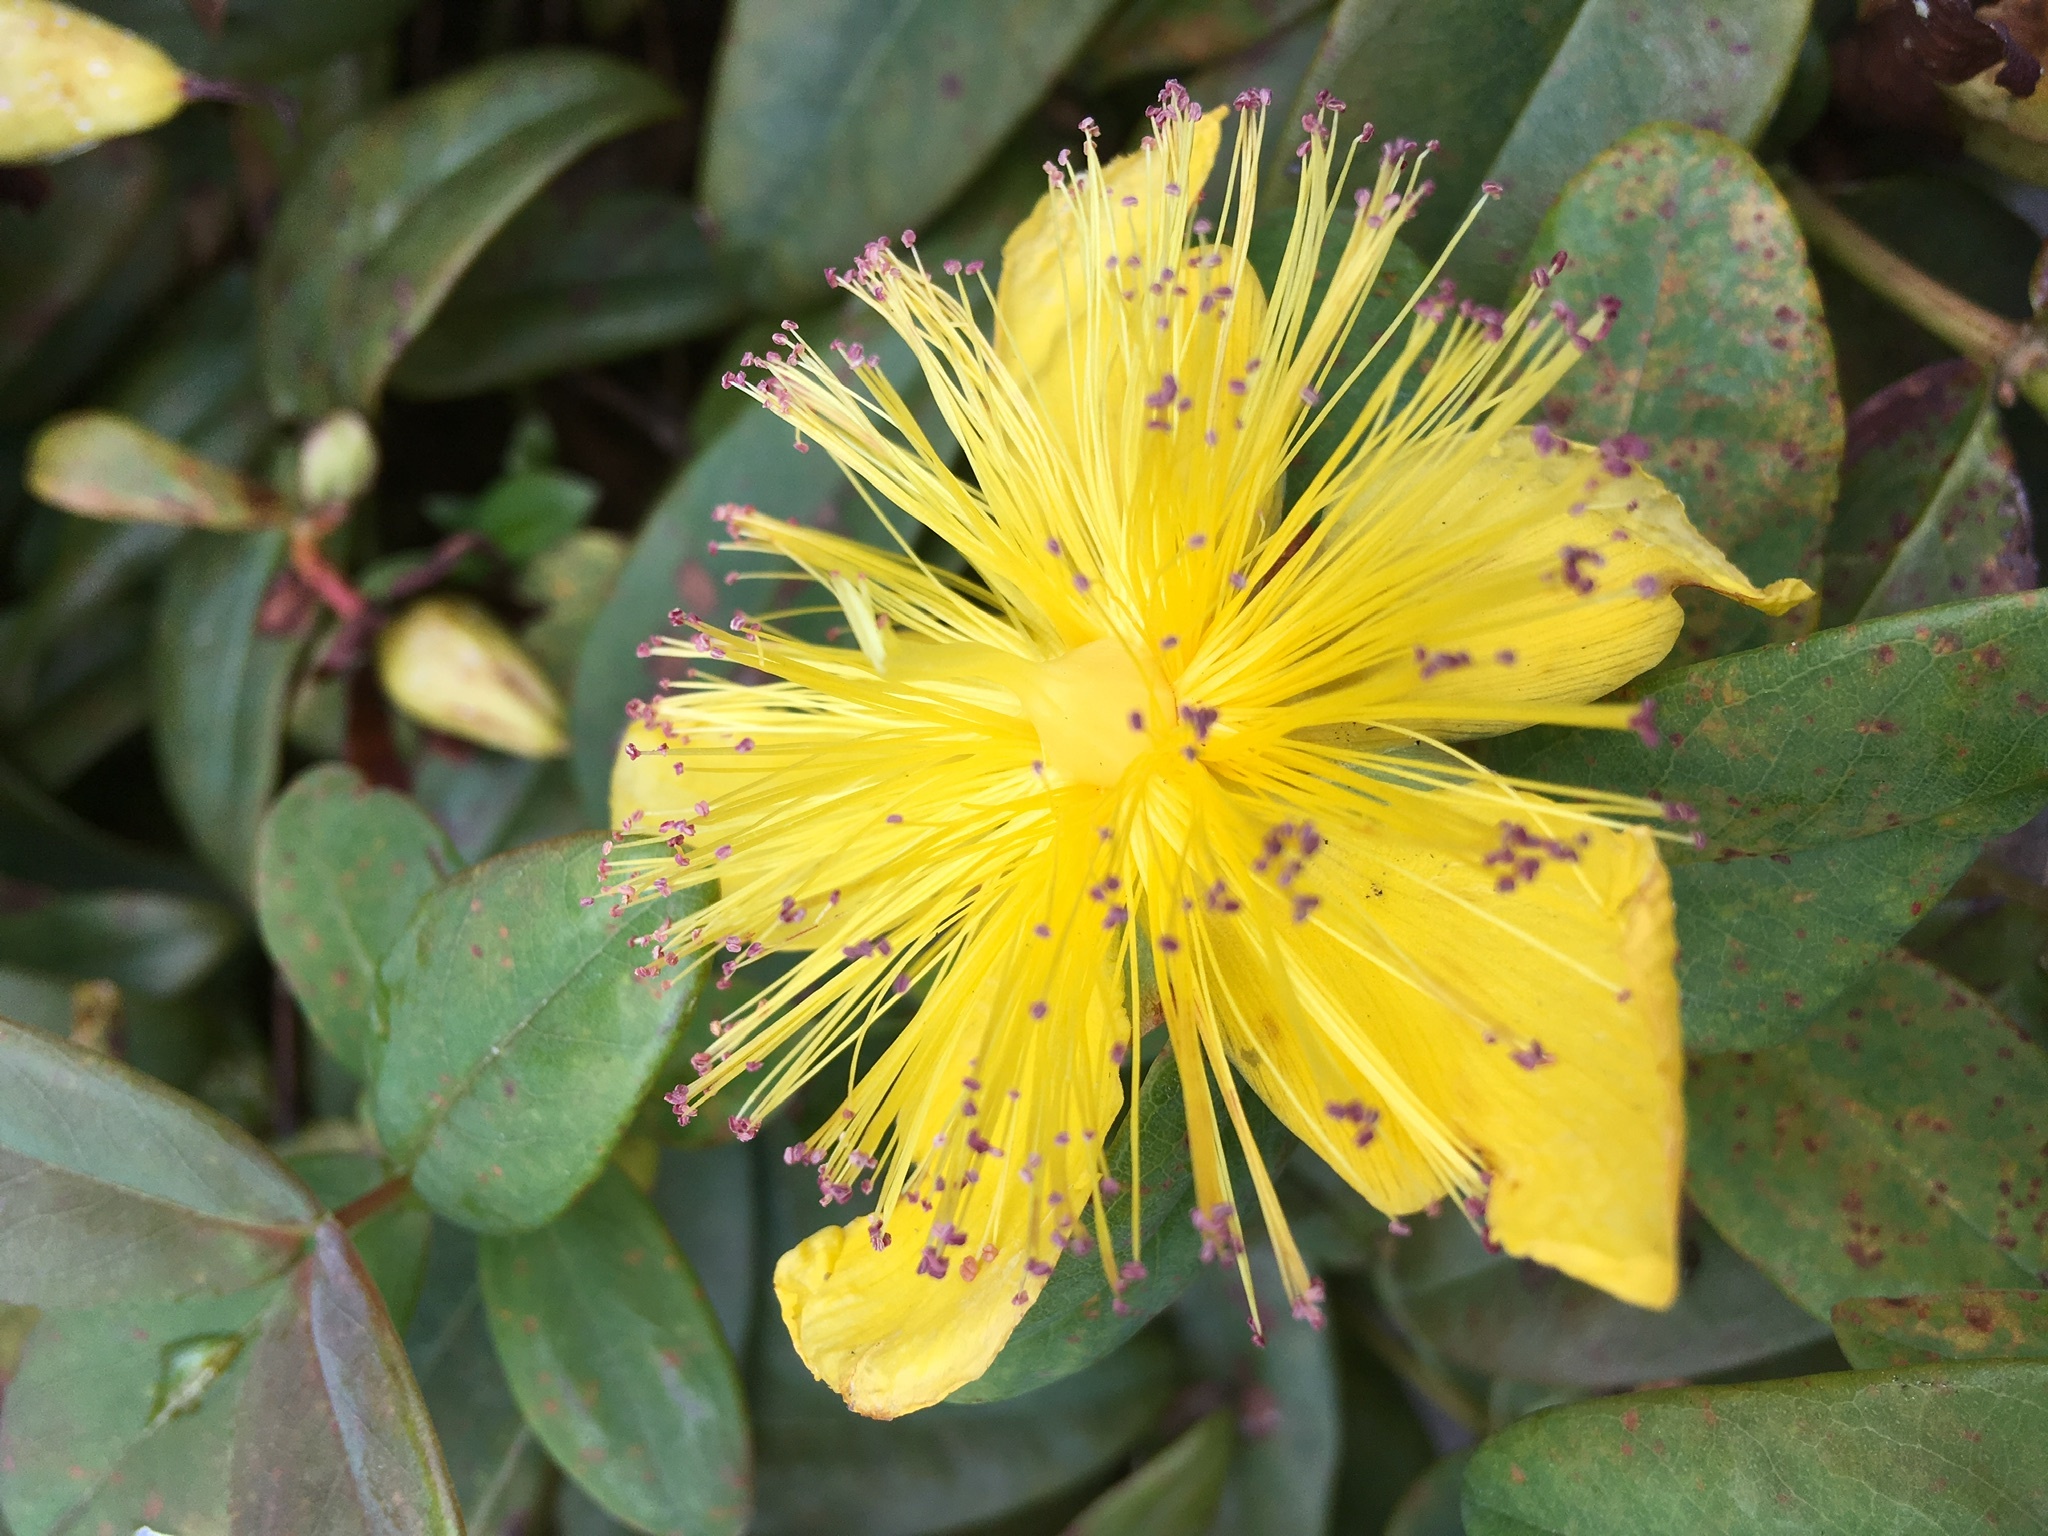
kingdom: Plantae
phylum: Tracheophyta
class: Magnoliopsida
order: Malpighiales
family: Hypericaceae
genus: Hypericum
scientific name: Hypericum calycinum
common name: Rose-of-sharon
